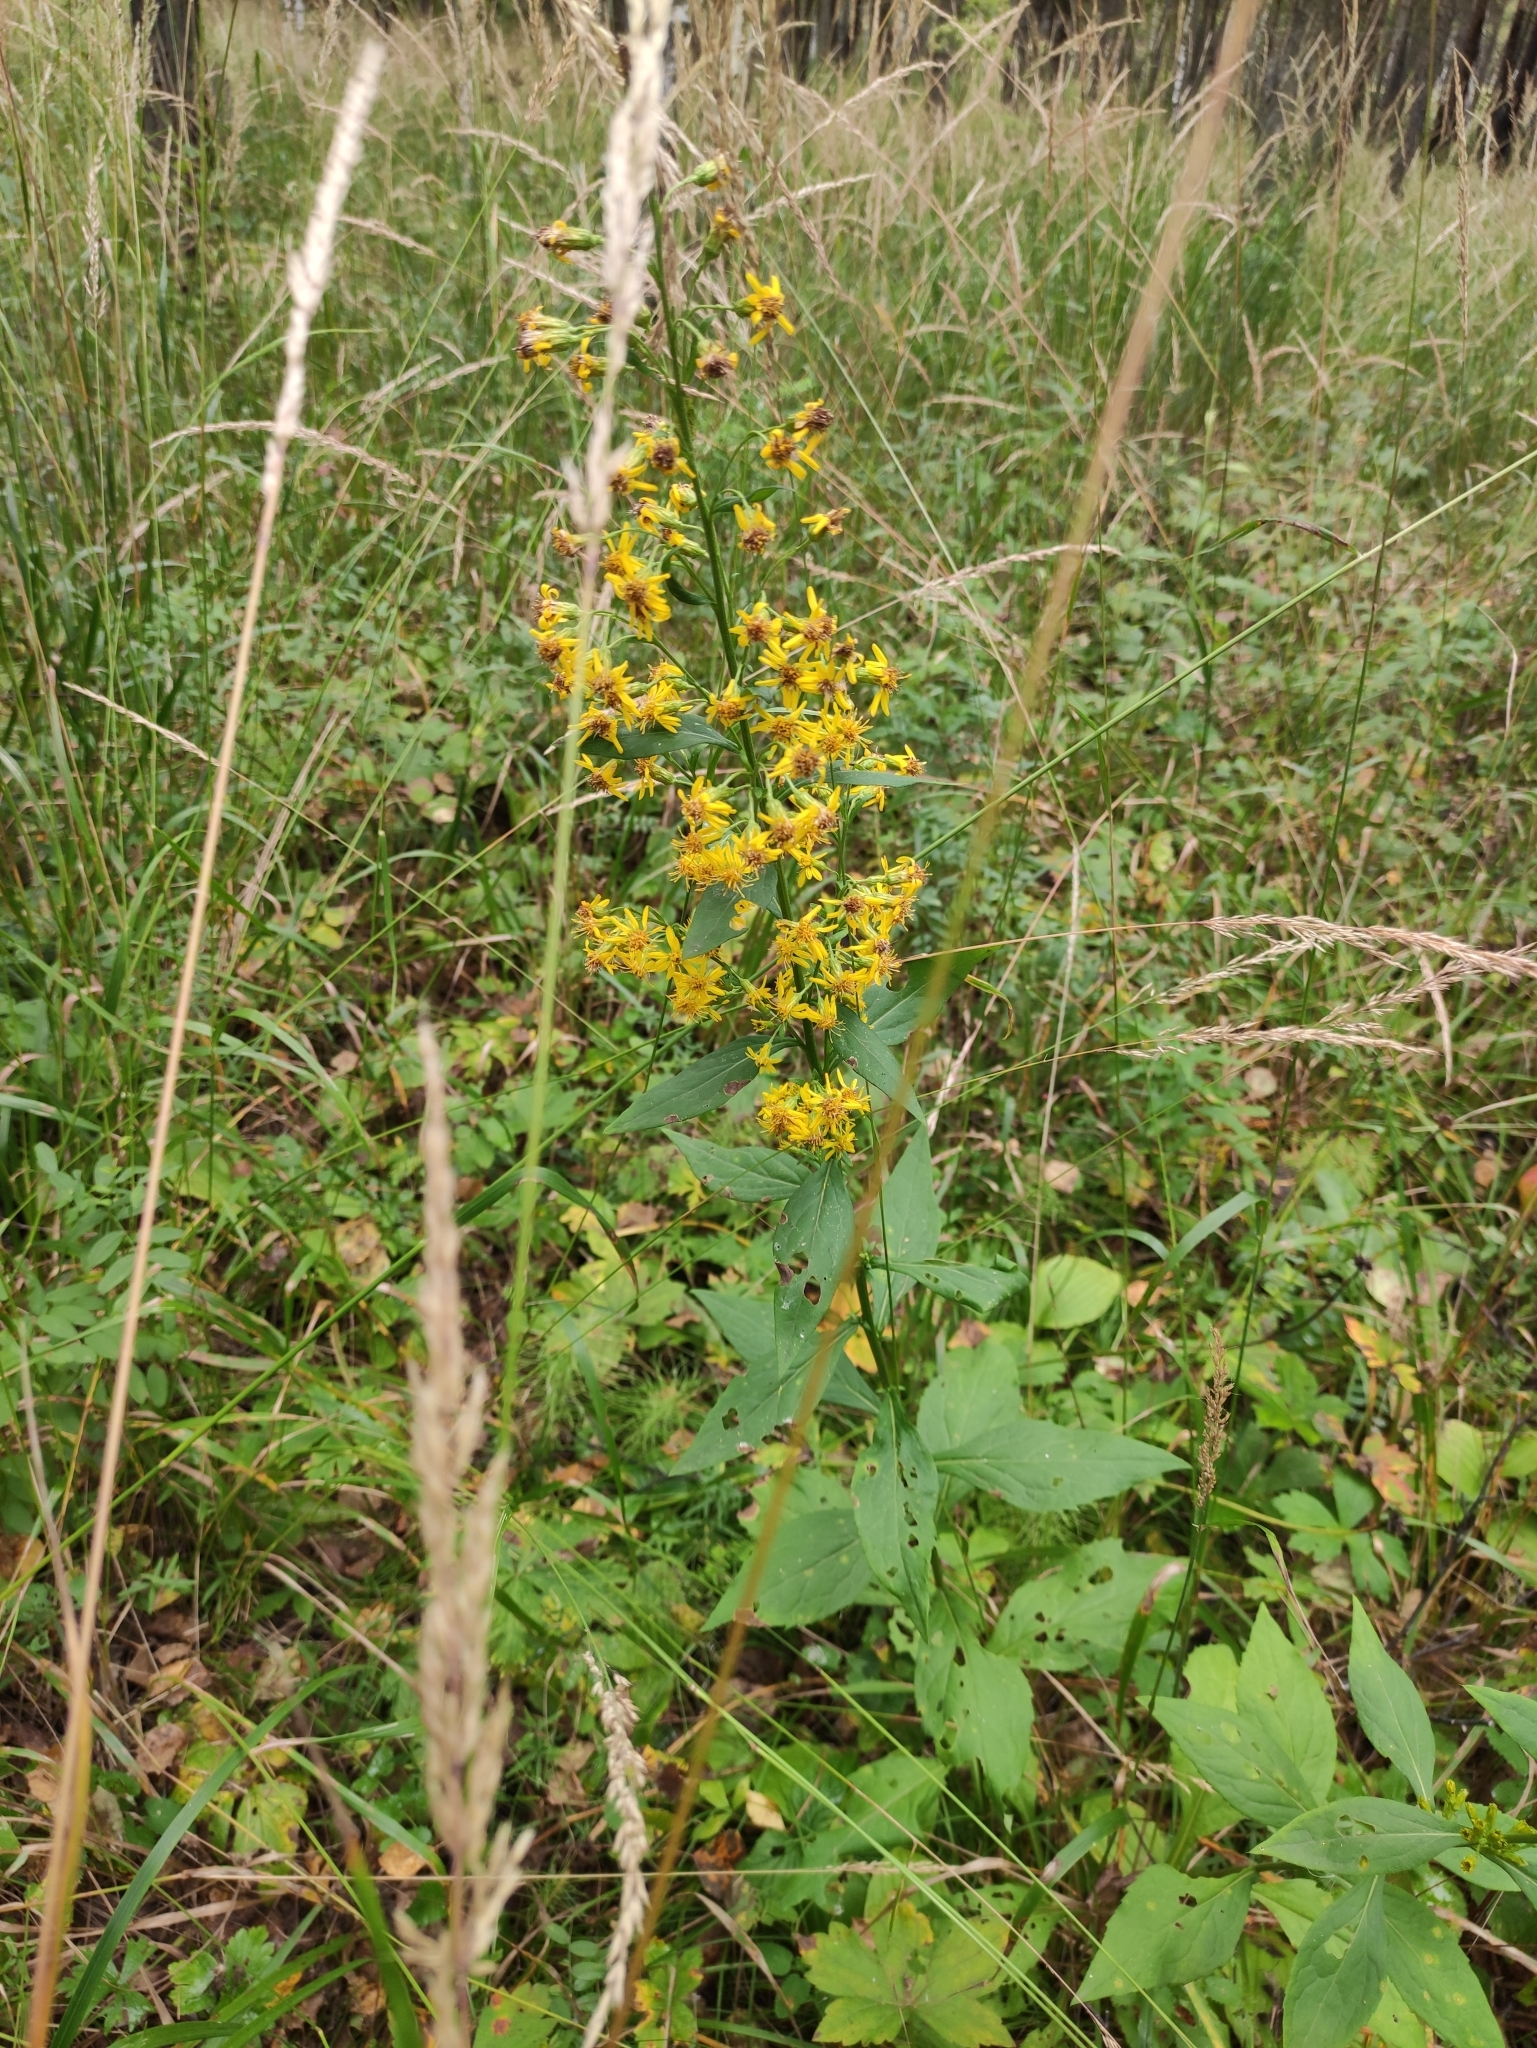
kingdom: Plantae
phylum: Tracheophyta
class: Magnoliopsida
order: Asterales
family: Asteraceae
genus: Solidago
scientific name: Solidago dahurica
